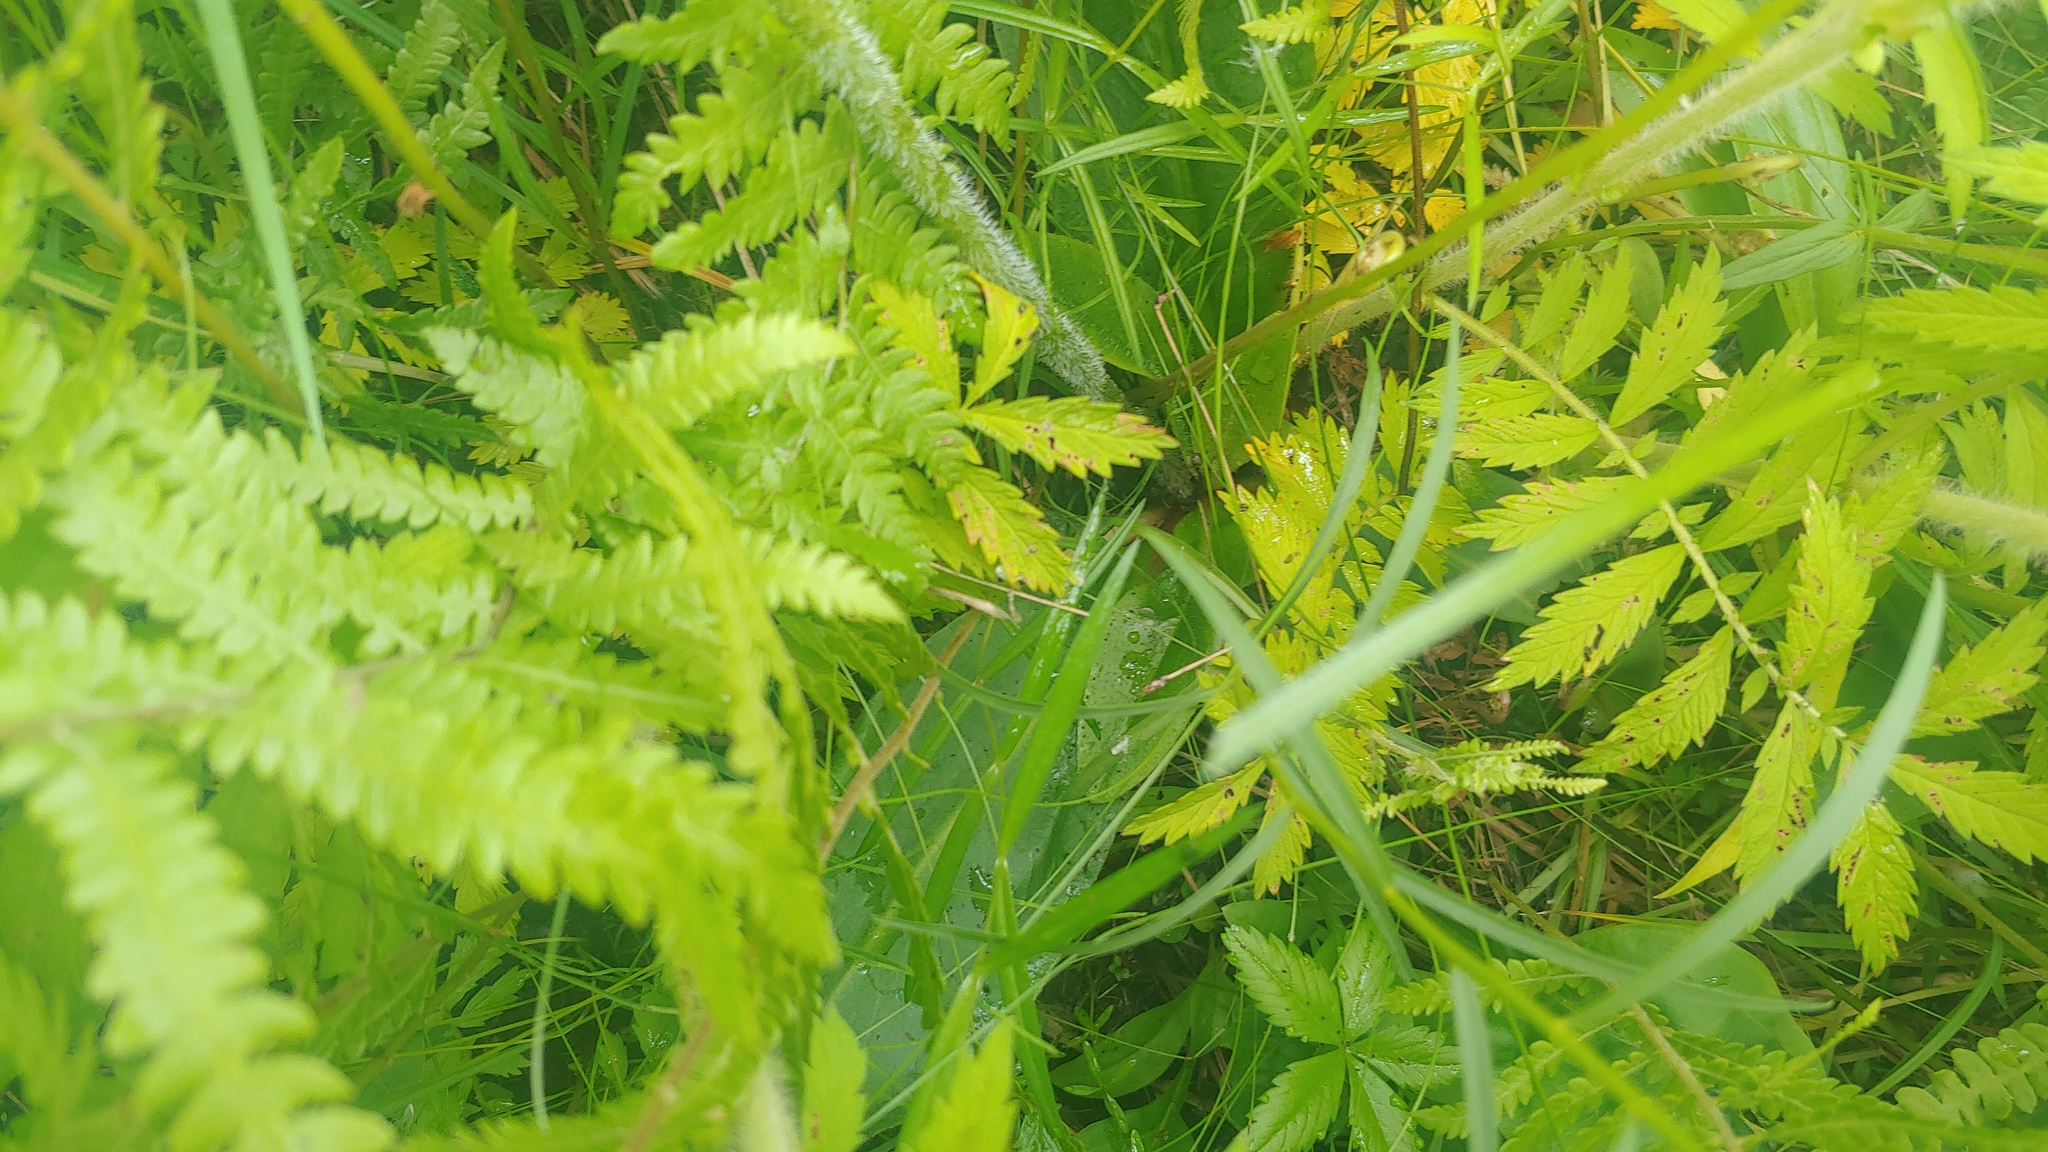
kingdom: Plantae
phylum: Tracheophyta
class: Magnoliopsida
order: Saxifragales
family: Saxifragaceae
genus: Micranthes
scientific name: Micranthes pensylvanica
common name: Marsh saxifrage
